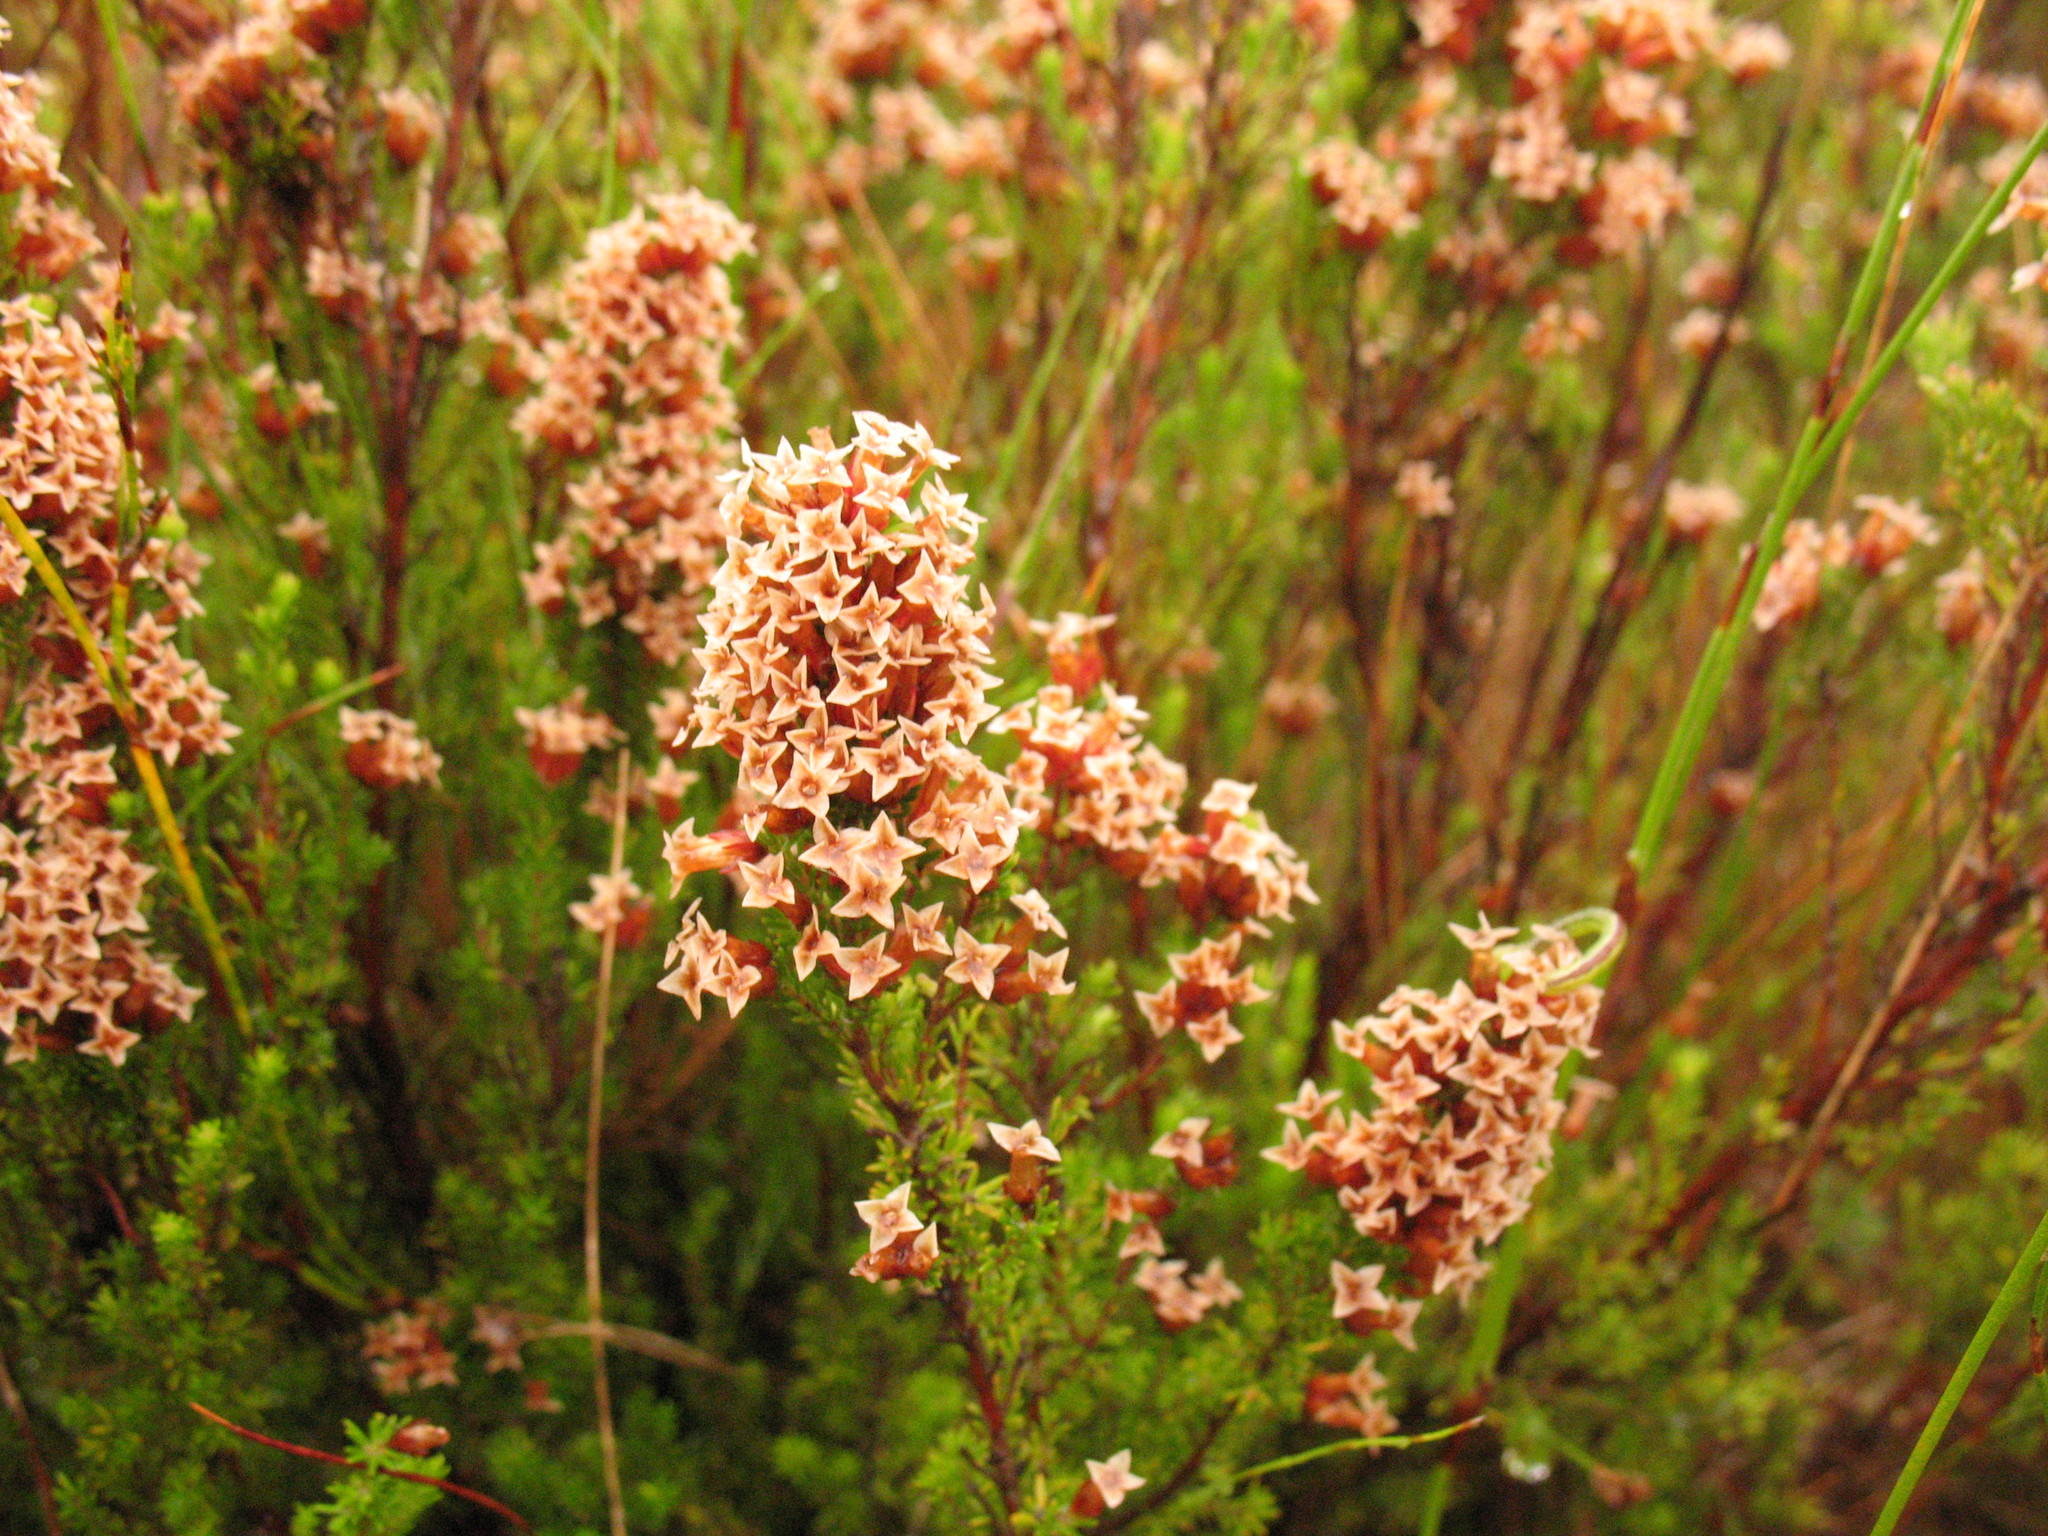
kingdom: Plantae
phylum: Tracheophyta
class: Magnoliopsida
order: Ericales
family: Ericaceae
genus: Erica
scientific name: Erica
